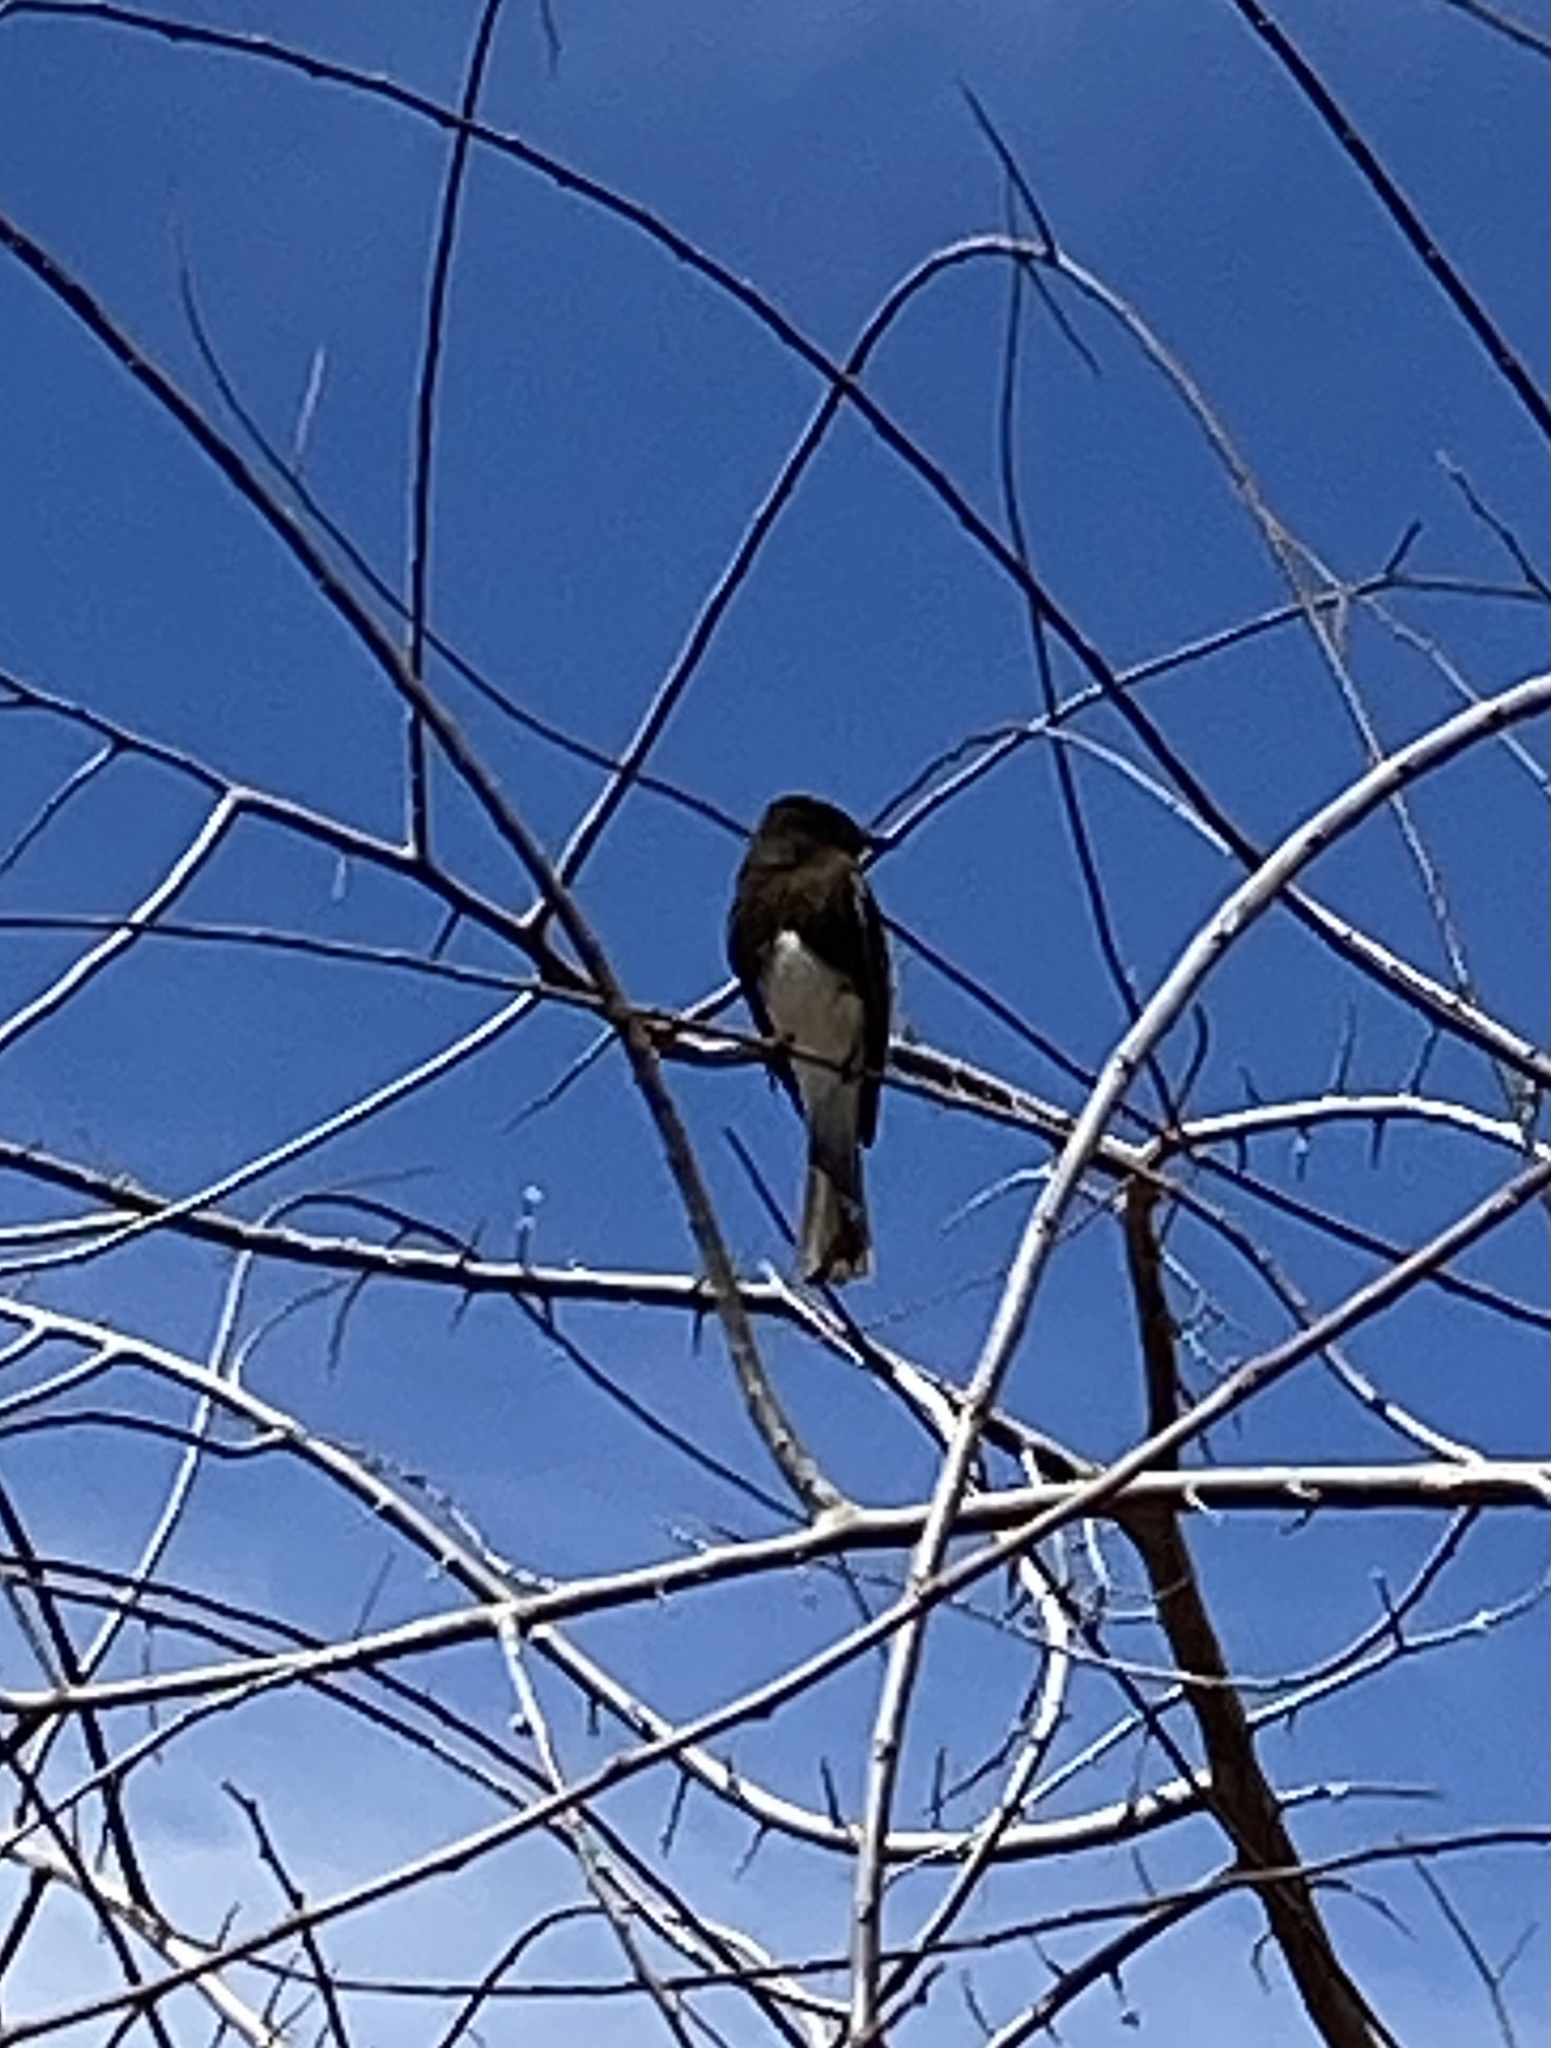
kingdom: Animalia
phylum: Chordata
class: Aves
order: Passeriformes
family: Tyrannidae
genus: Sayornis
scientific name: Sayornis nigricans
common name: Black phoebe
